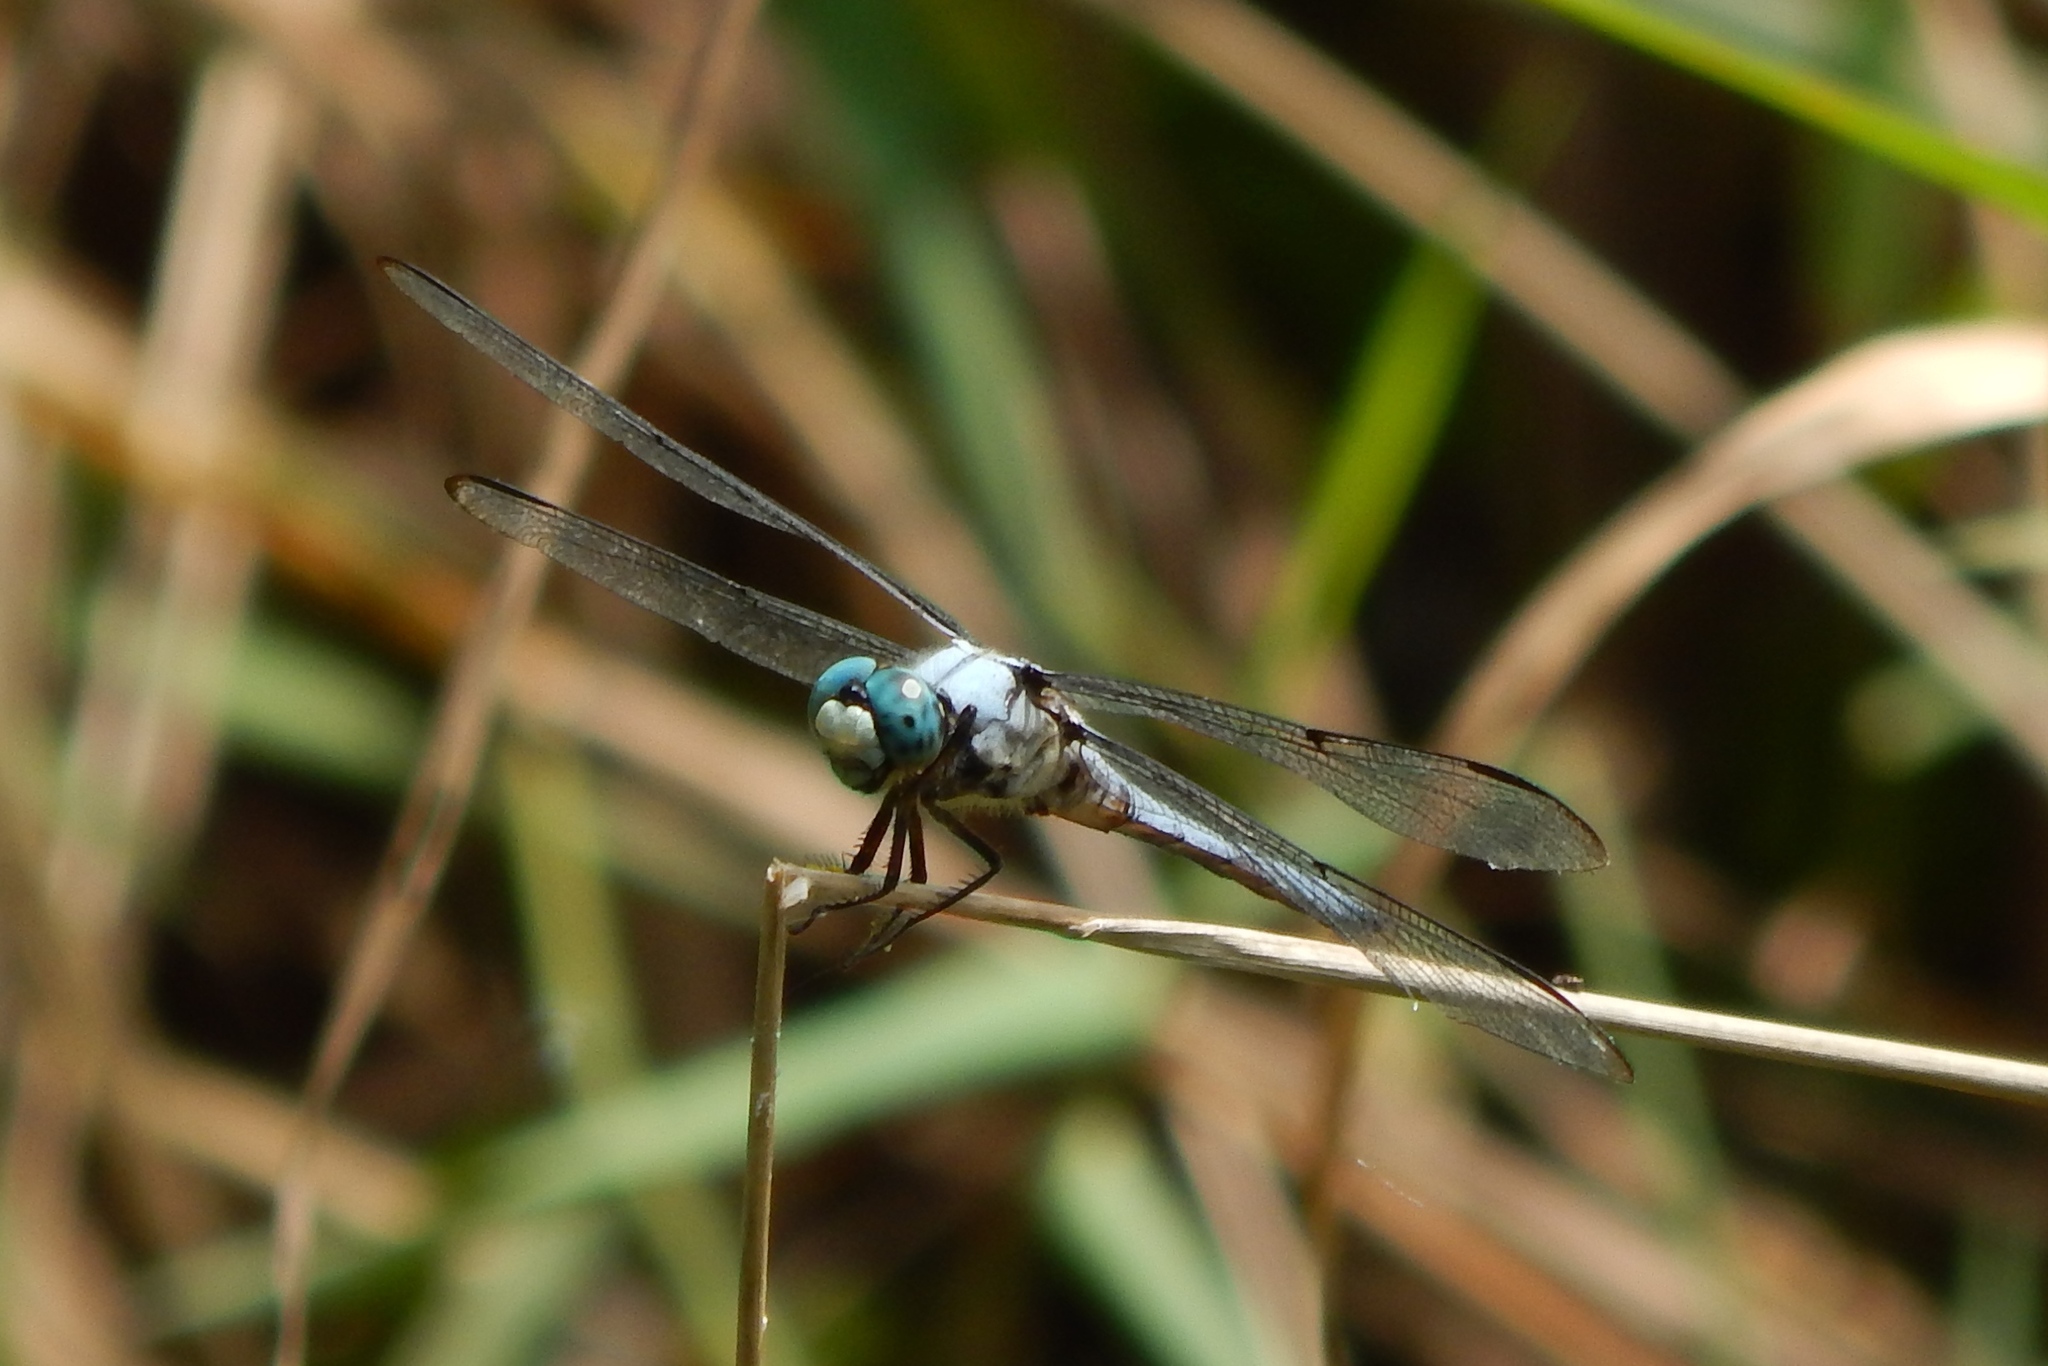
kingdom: Animalia
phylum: Arthropoda
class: Insecta
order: Odonata
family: Libellulidae
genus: Libellula
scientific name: Libellula vibrans
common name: Great blue skimmer
